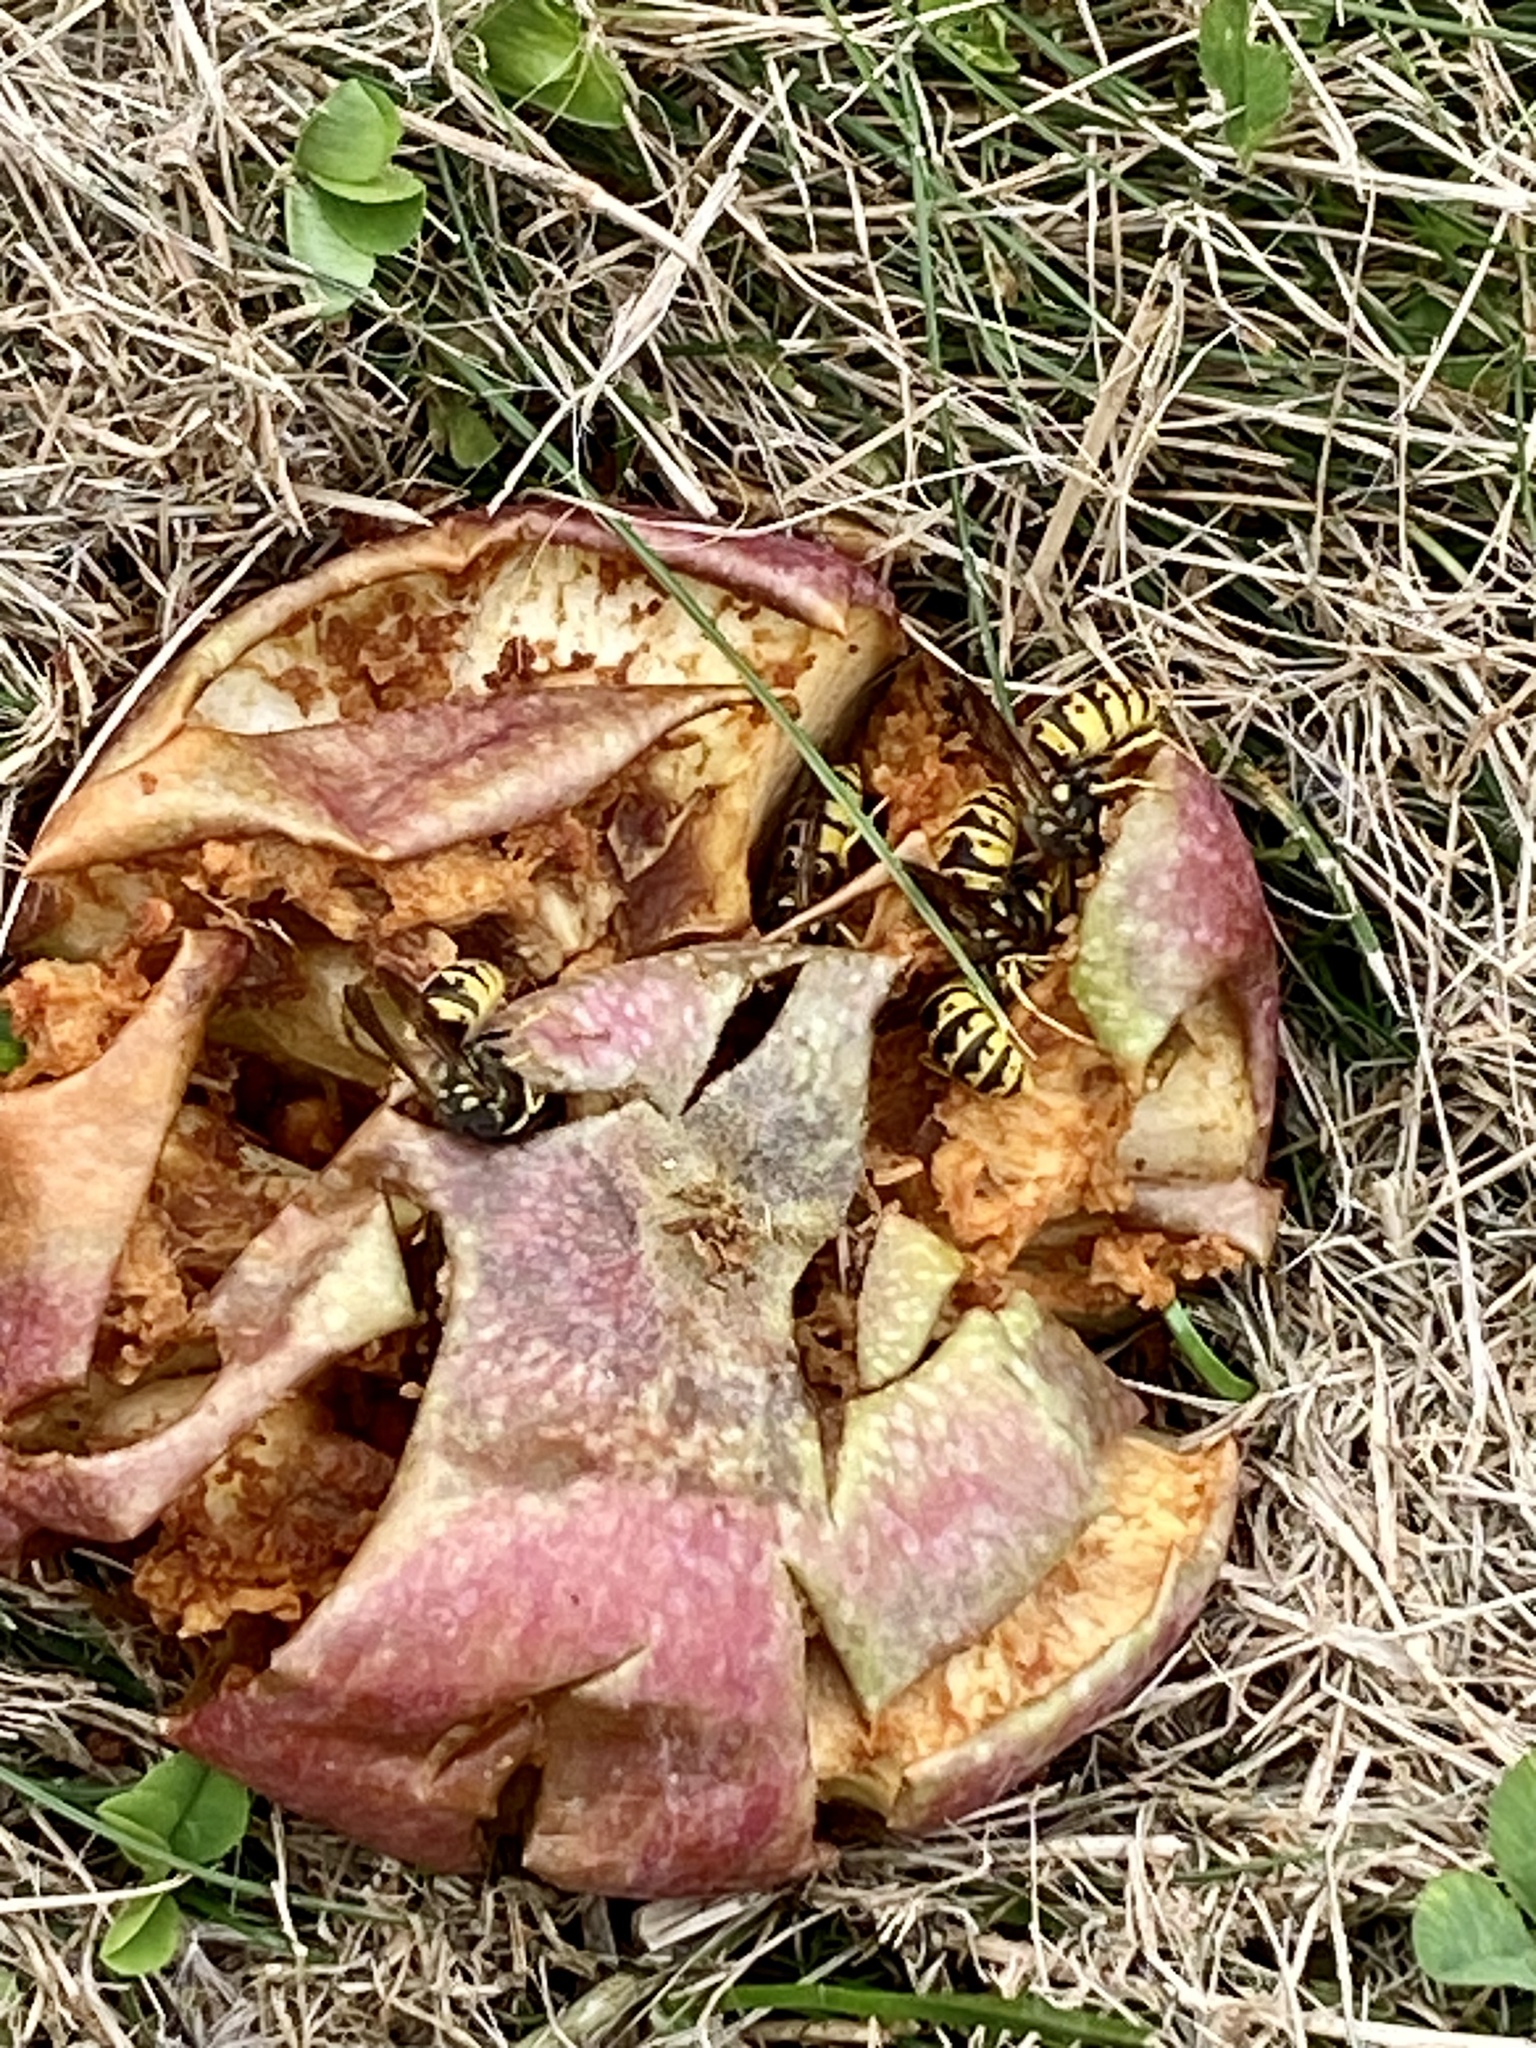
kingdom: Animalia
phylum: Arthropoda
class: Insecta
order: Hymenoptera
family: Vespidae
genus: Vespula
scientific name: Vespula germanica
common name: German wasp
